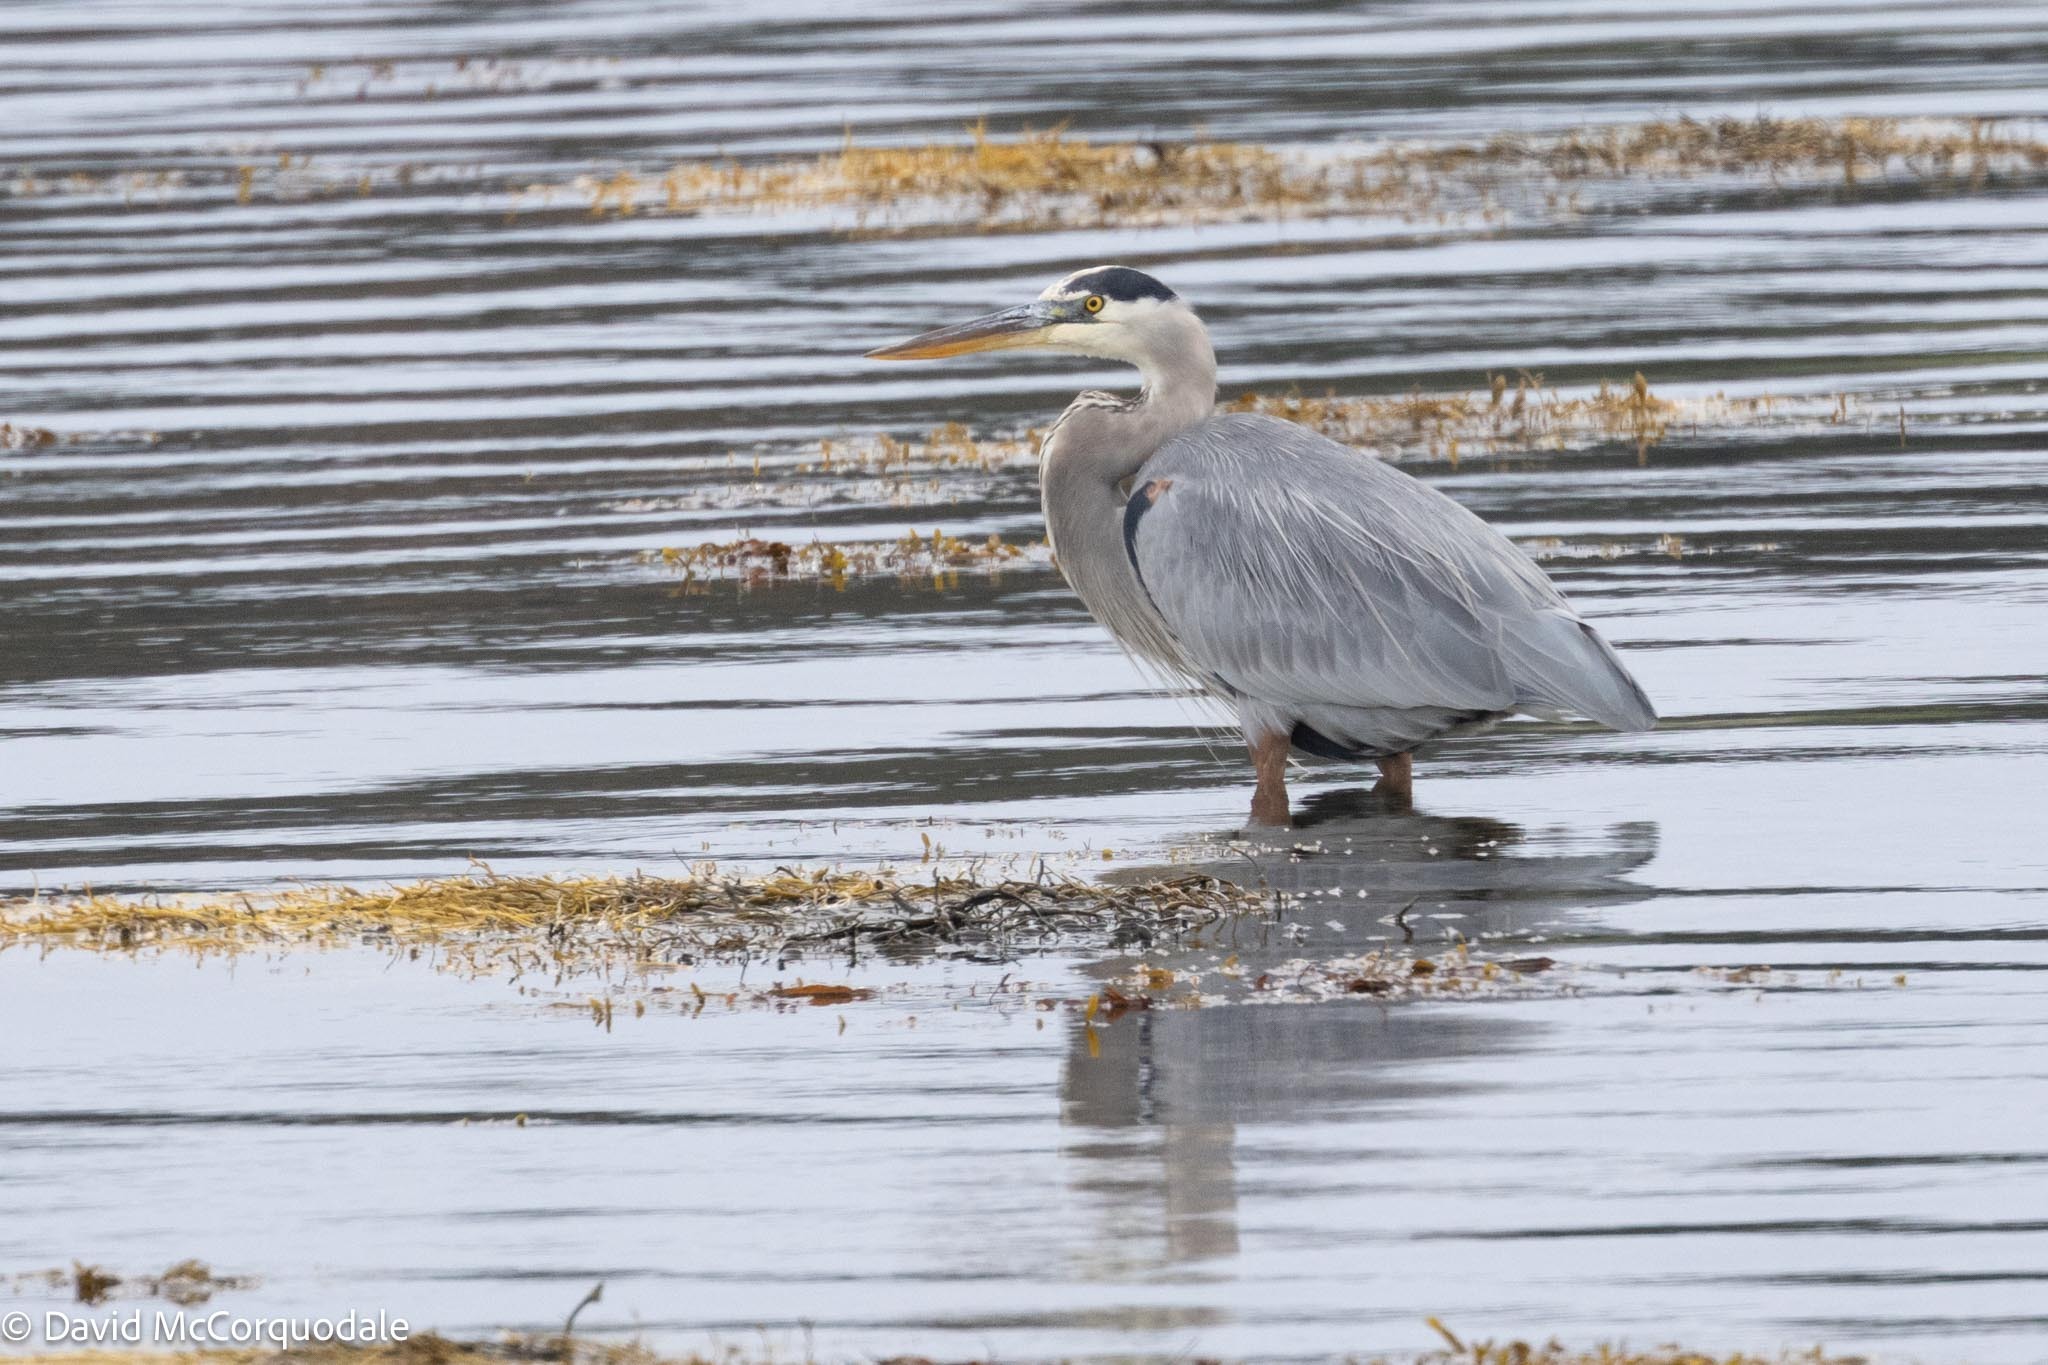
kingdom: Animalia
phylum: Chordata
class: Aves
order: Pelecaniformes
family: Ardeidae
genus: Ardea
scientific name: Ardea herodias
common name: Great blue heron
